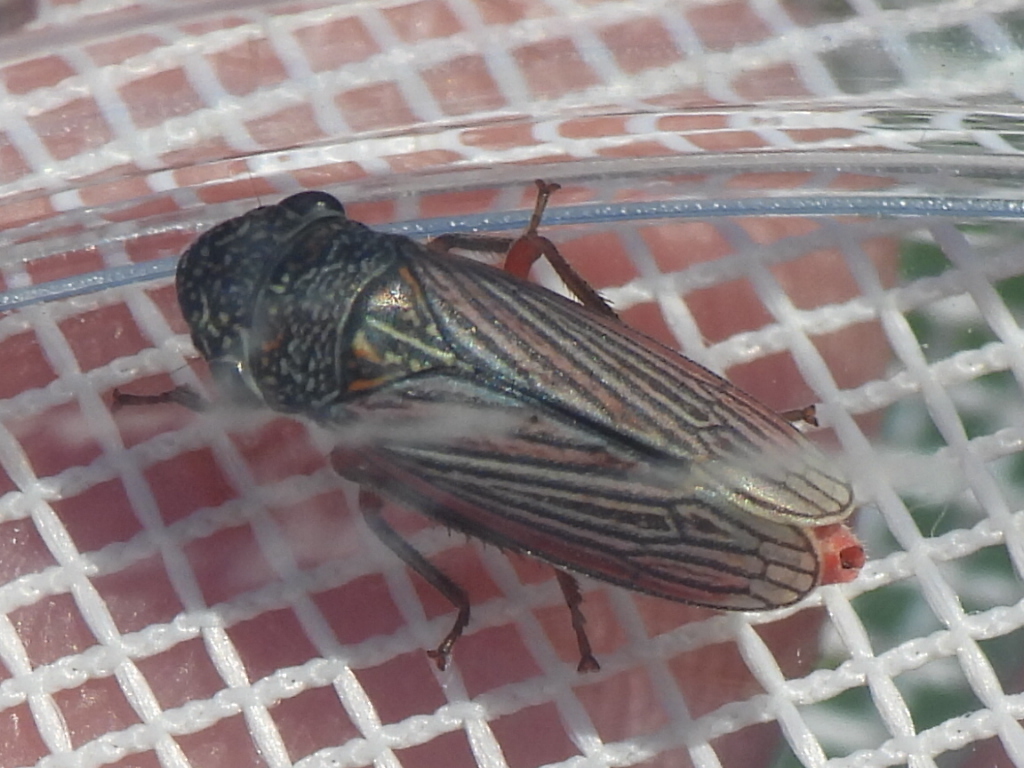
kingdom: Animalia
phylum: Arthropoda
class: Insecta
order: Hemiptera
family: Cicadellidae
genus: Cuerna
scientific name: Cuerna costalis
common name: Lateral-lined sharpshooter
